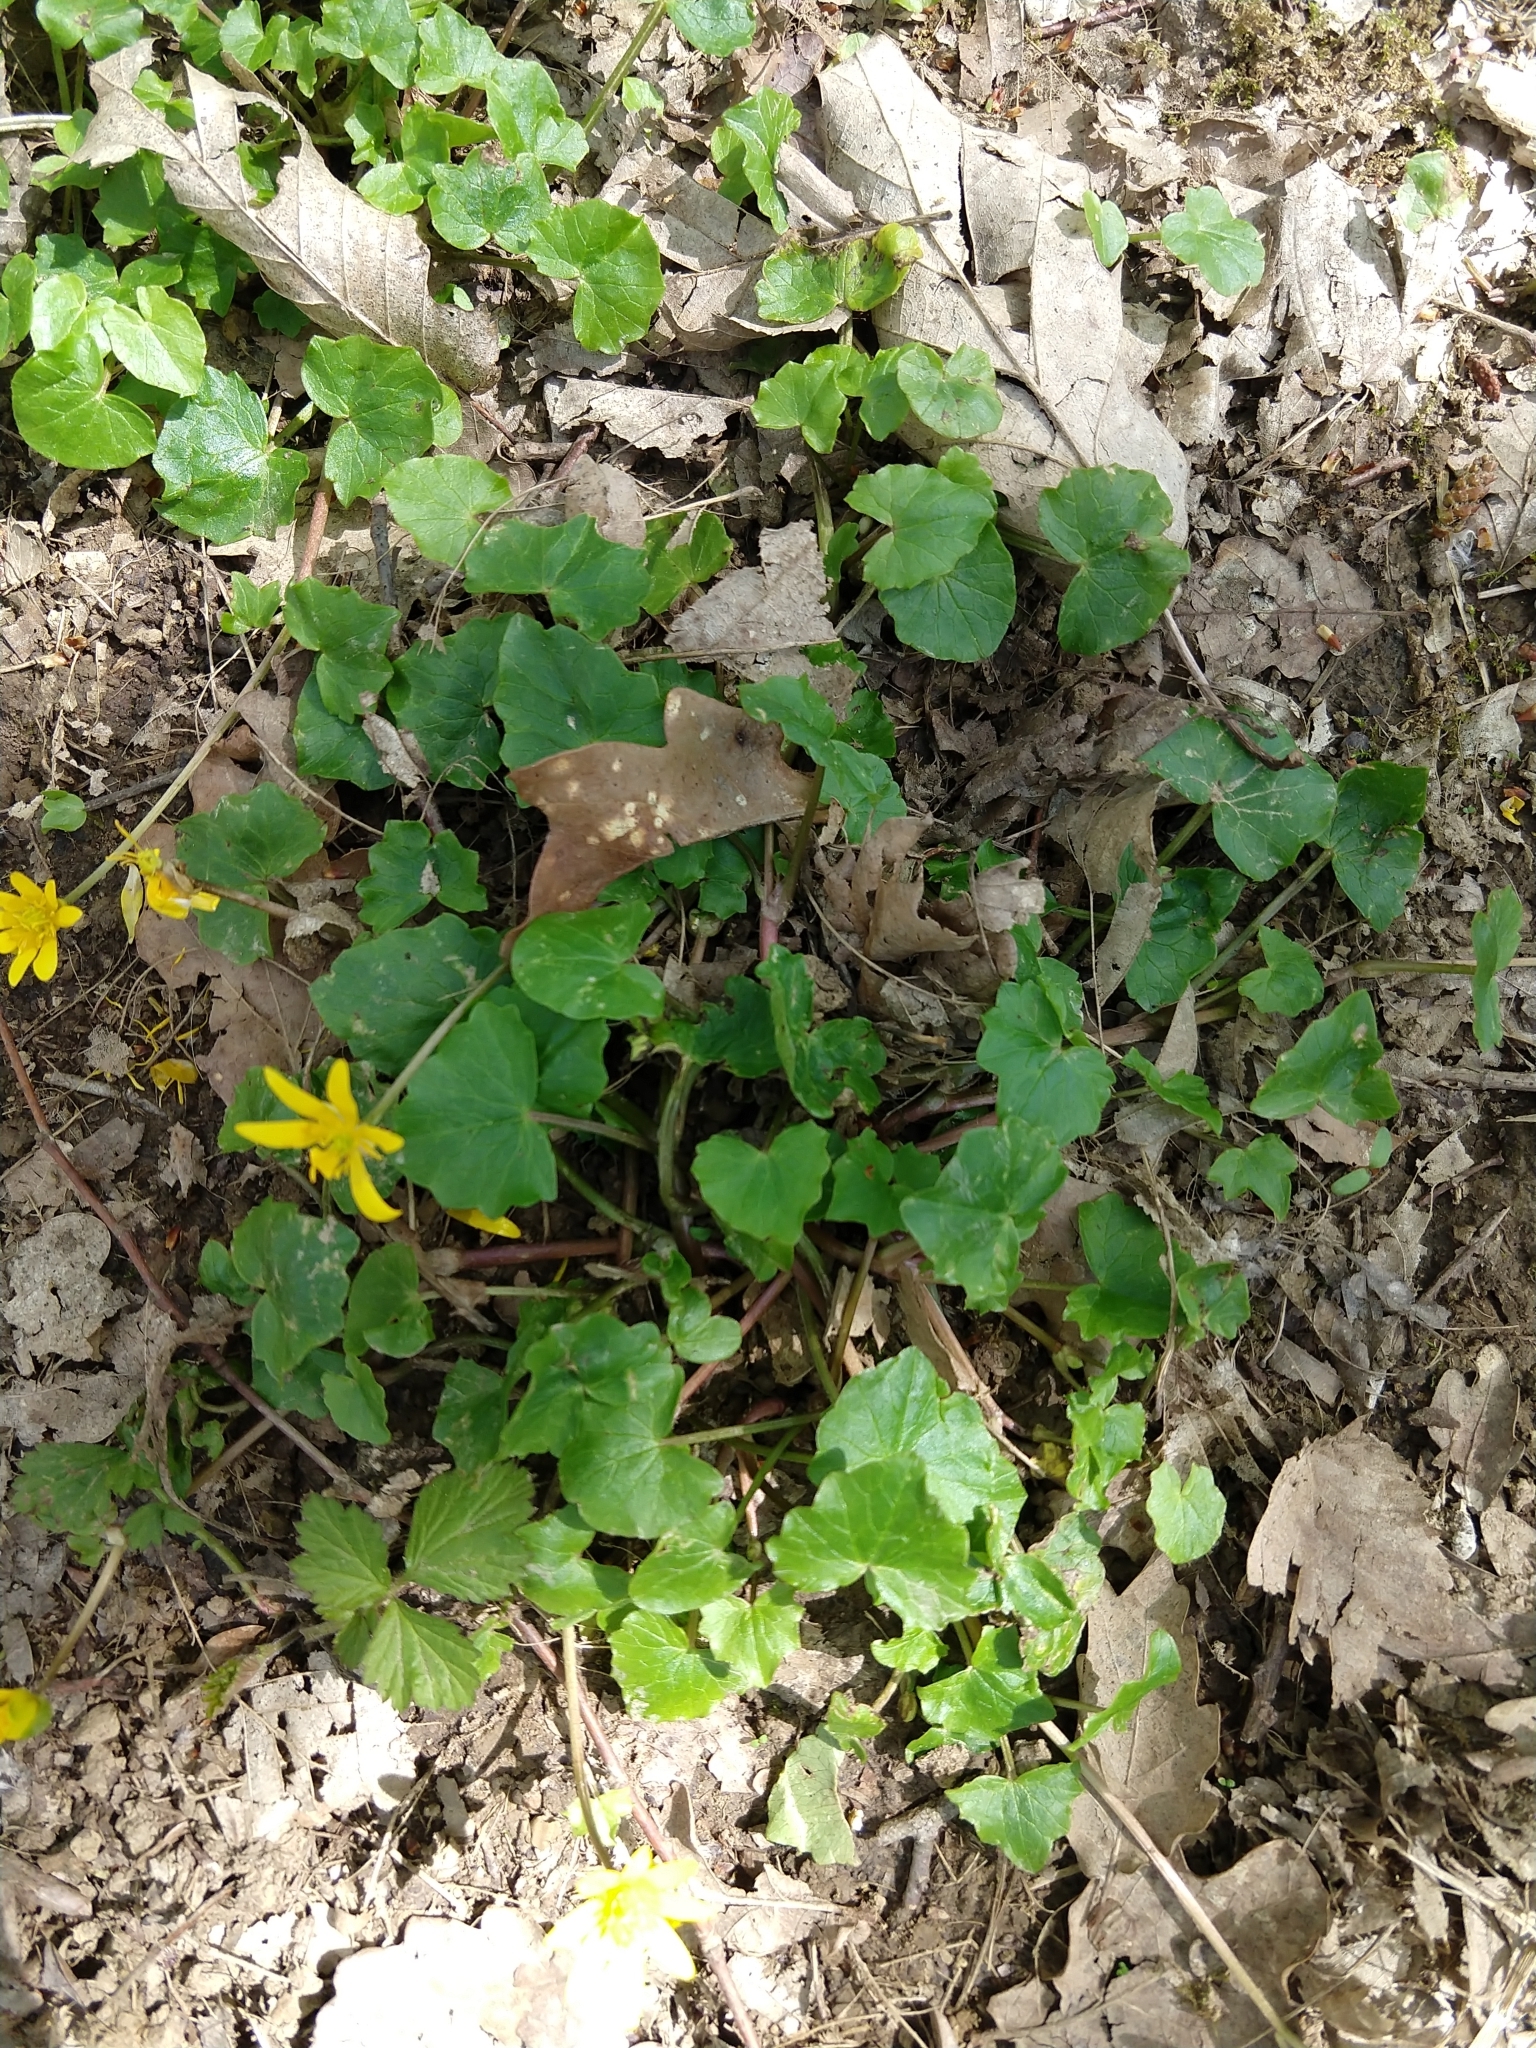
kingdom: Plantae
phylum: Tracheophyta
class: Magnoliopsida
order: Ranunculales
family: Ranunculaceae
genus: Ficaria
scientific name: Ficaria verna
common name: Lesser celandine
